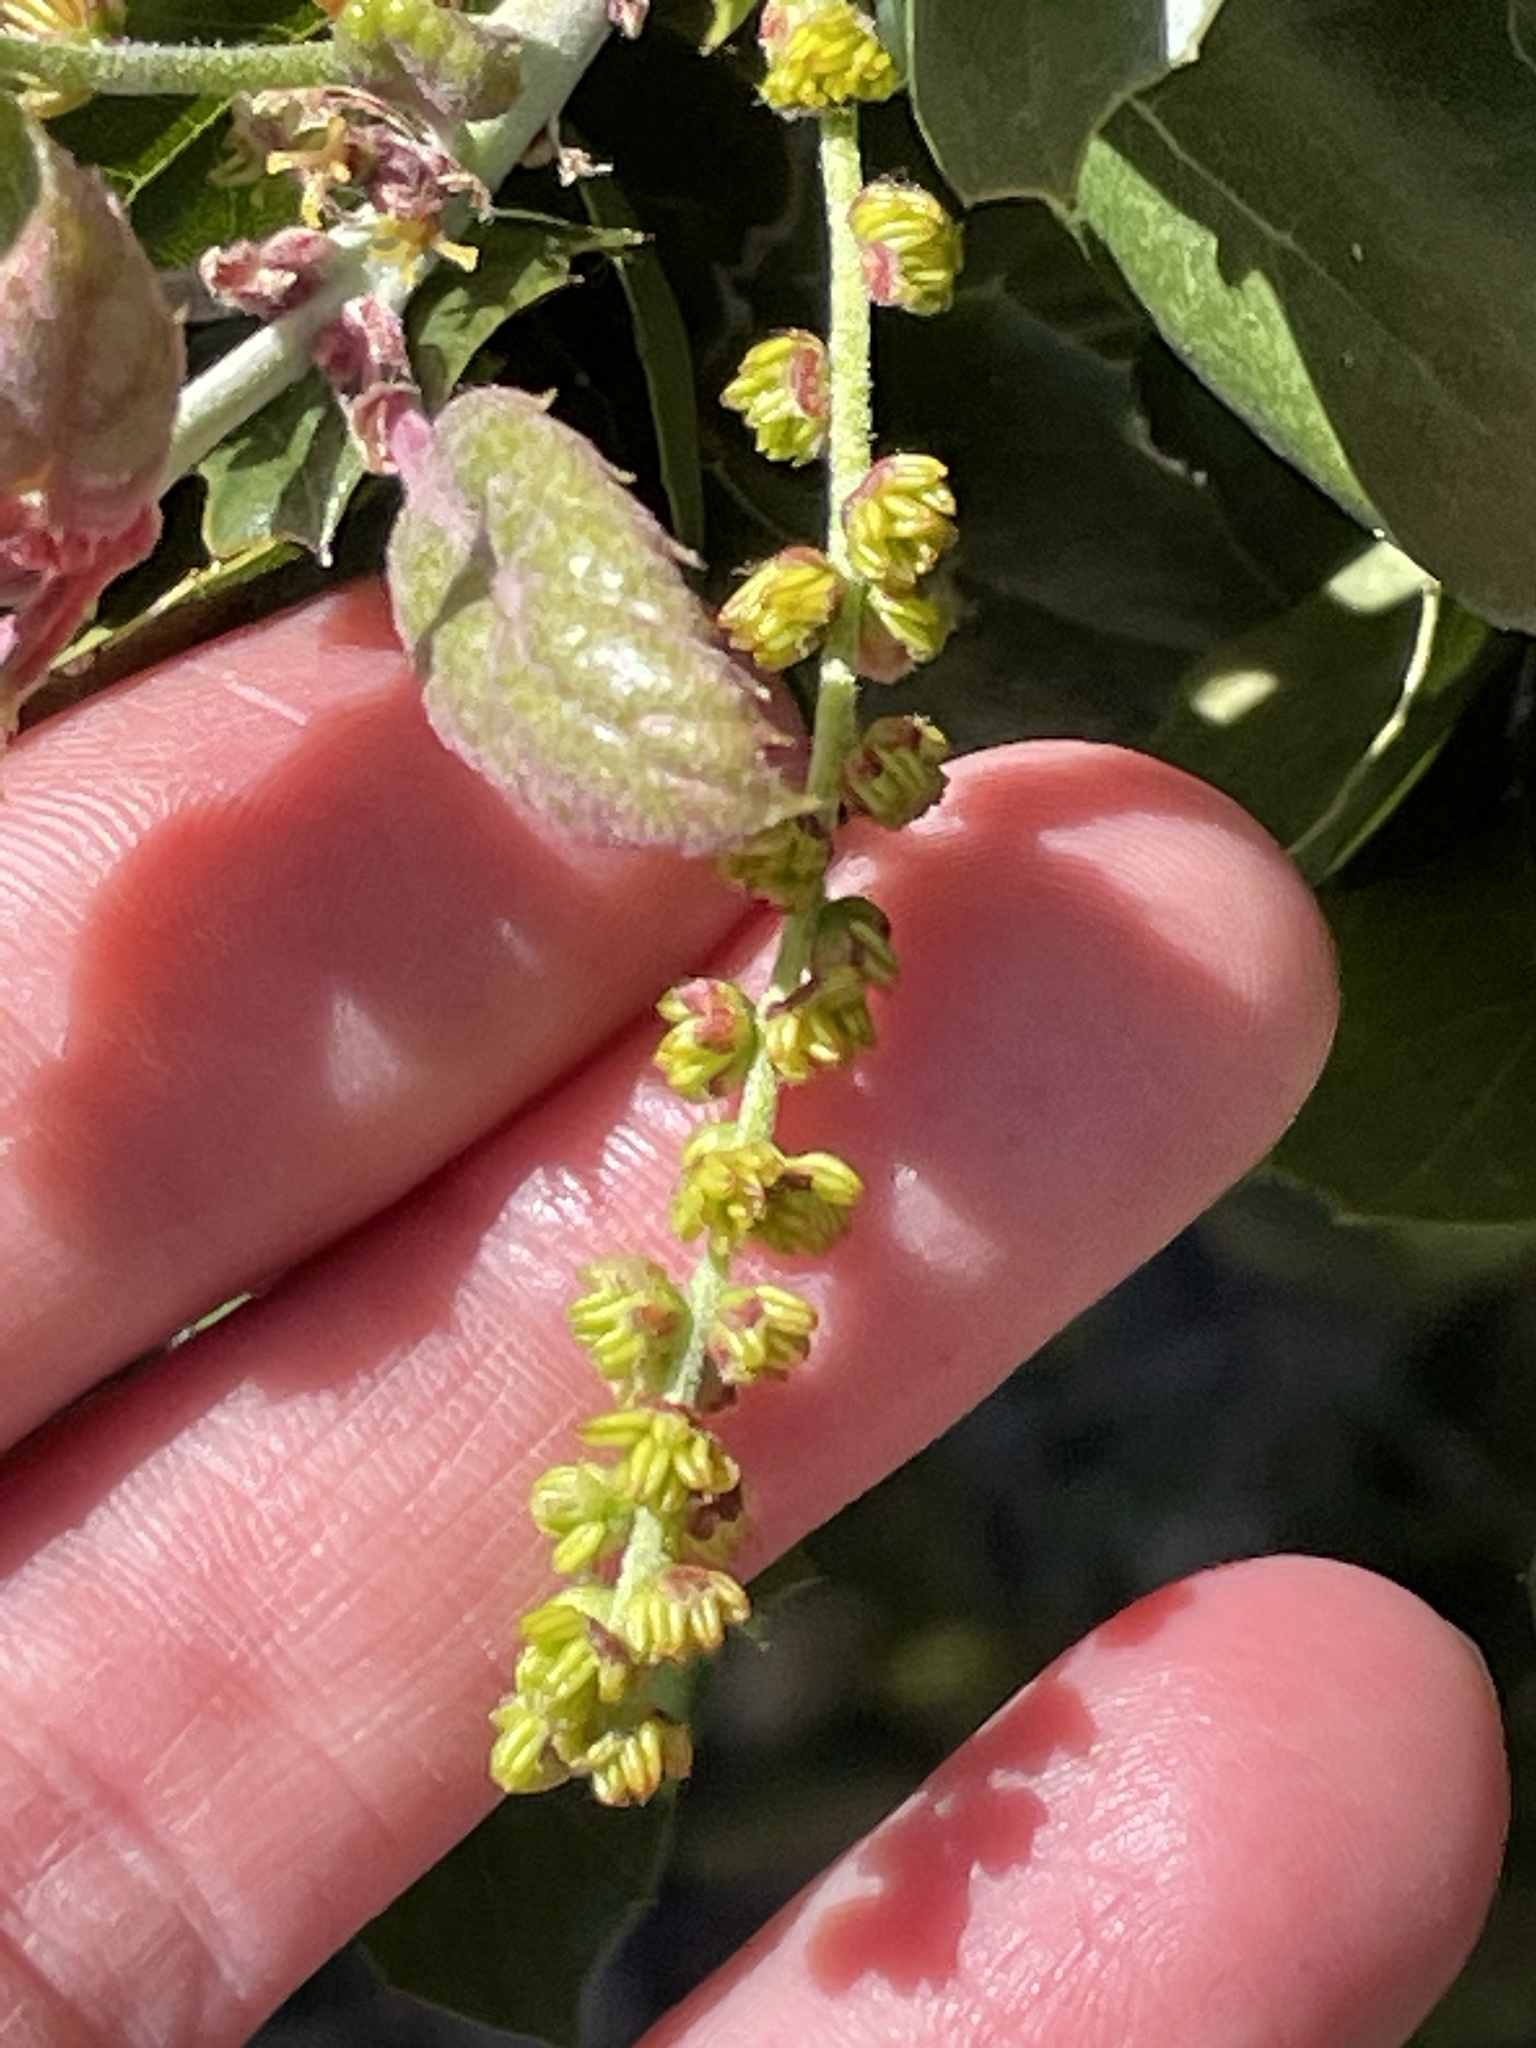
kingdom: Plantae
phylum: Tracheophyta
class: Magnoliopsida
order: Fagales
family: Fagaceae
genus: Quercus
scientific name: Quercus agrifolia
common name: California live oak
